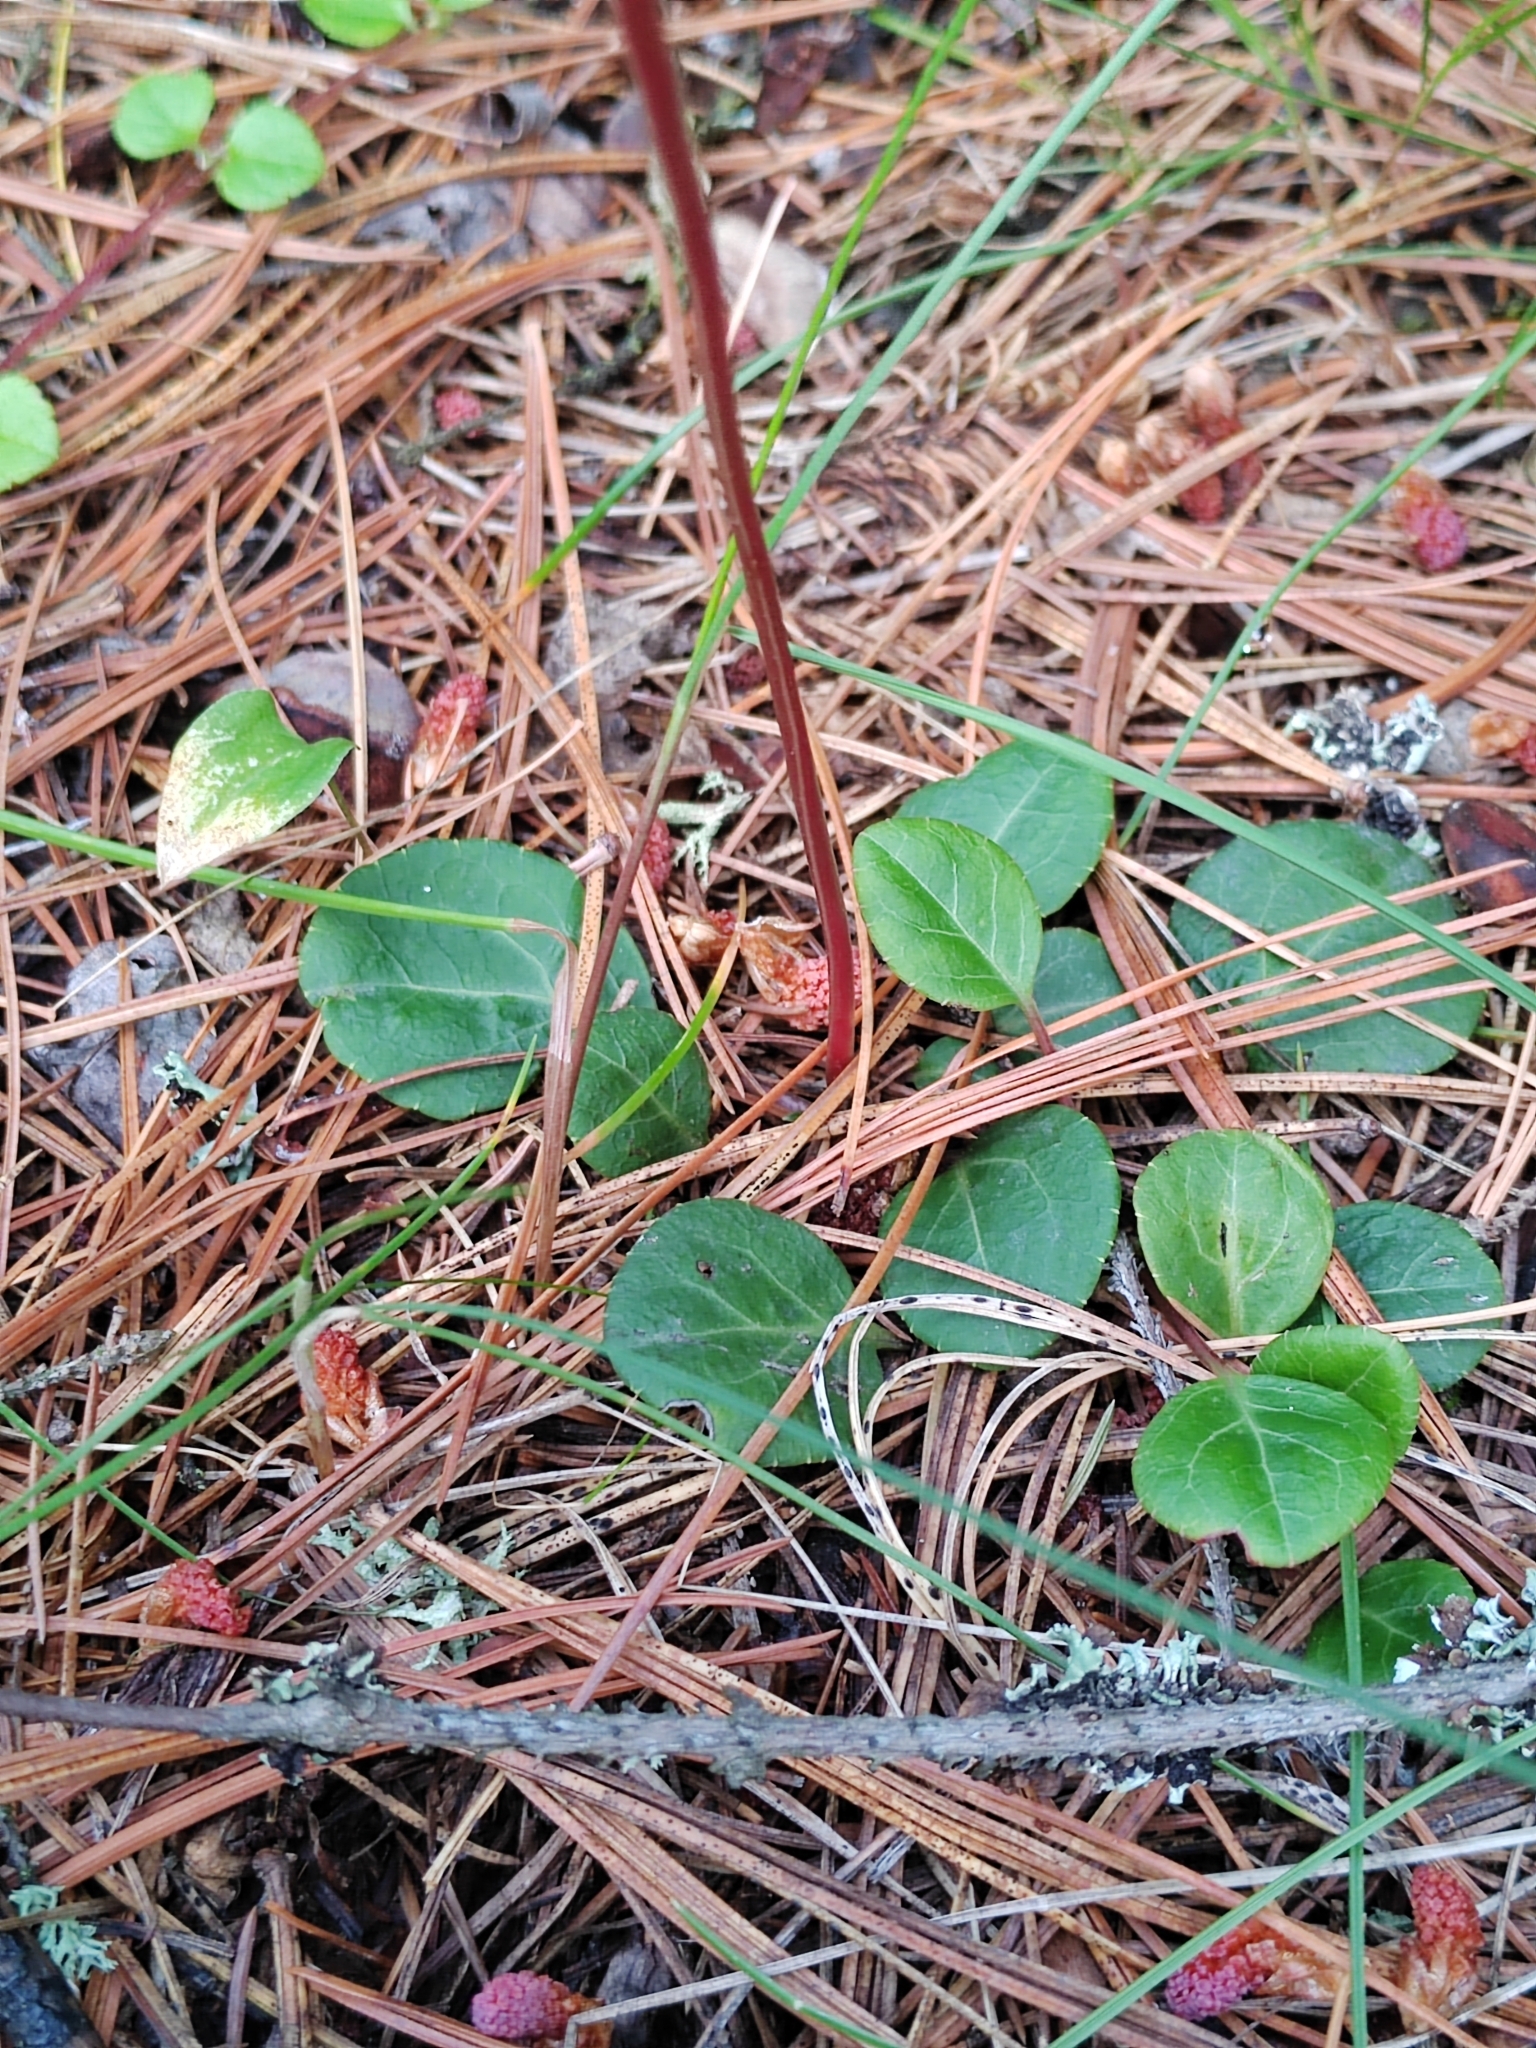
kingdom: Plantae
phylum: Tracheophyta
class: Magnoliopsida
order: Ericales
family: Ericaceae
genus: Pyrola
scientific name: Pyrola chlorantha
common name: Green wintergreen
